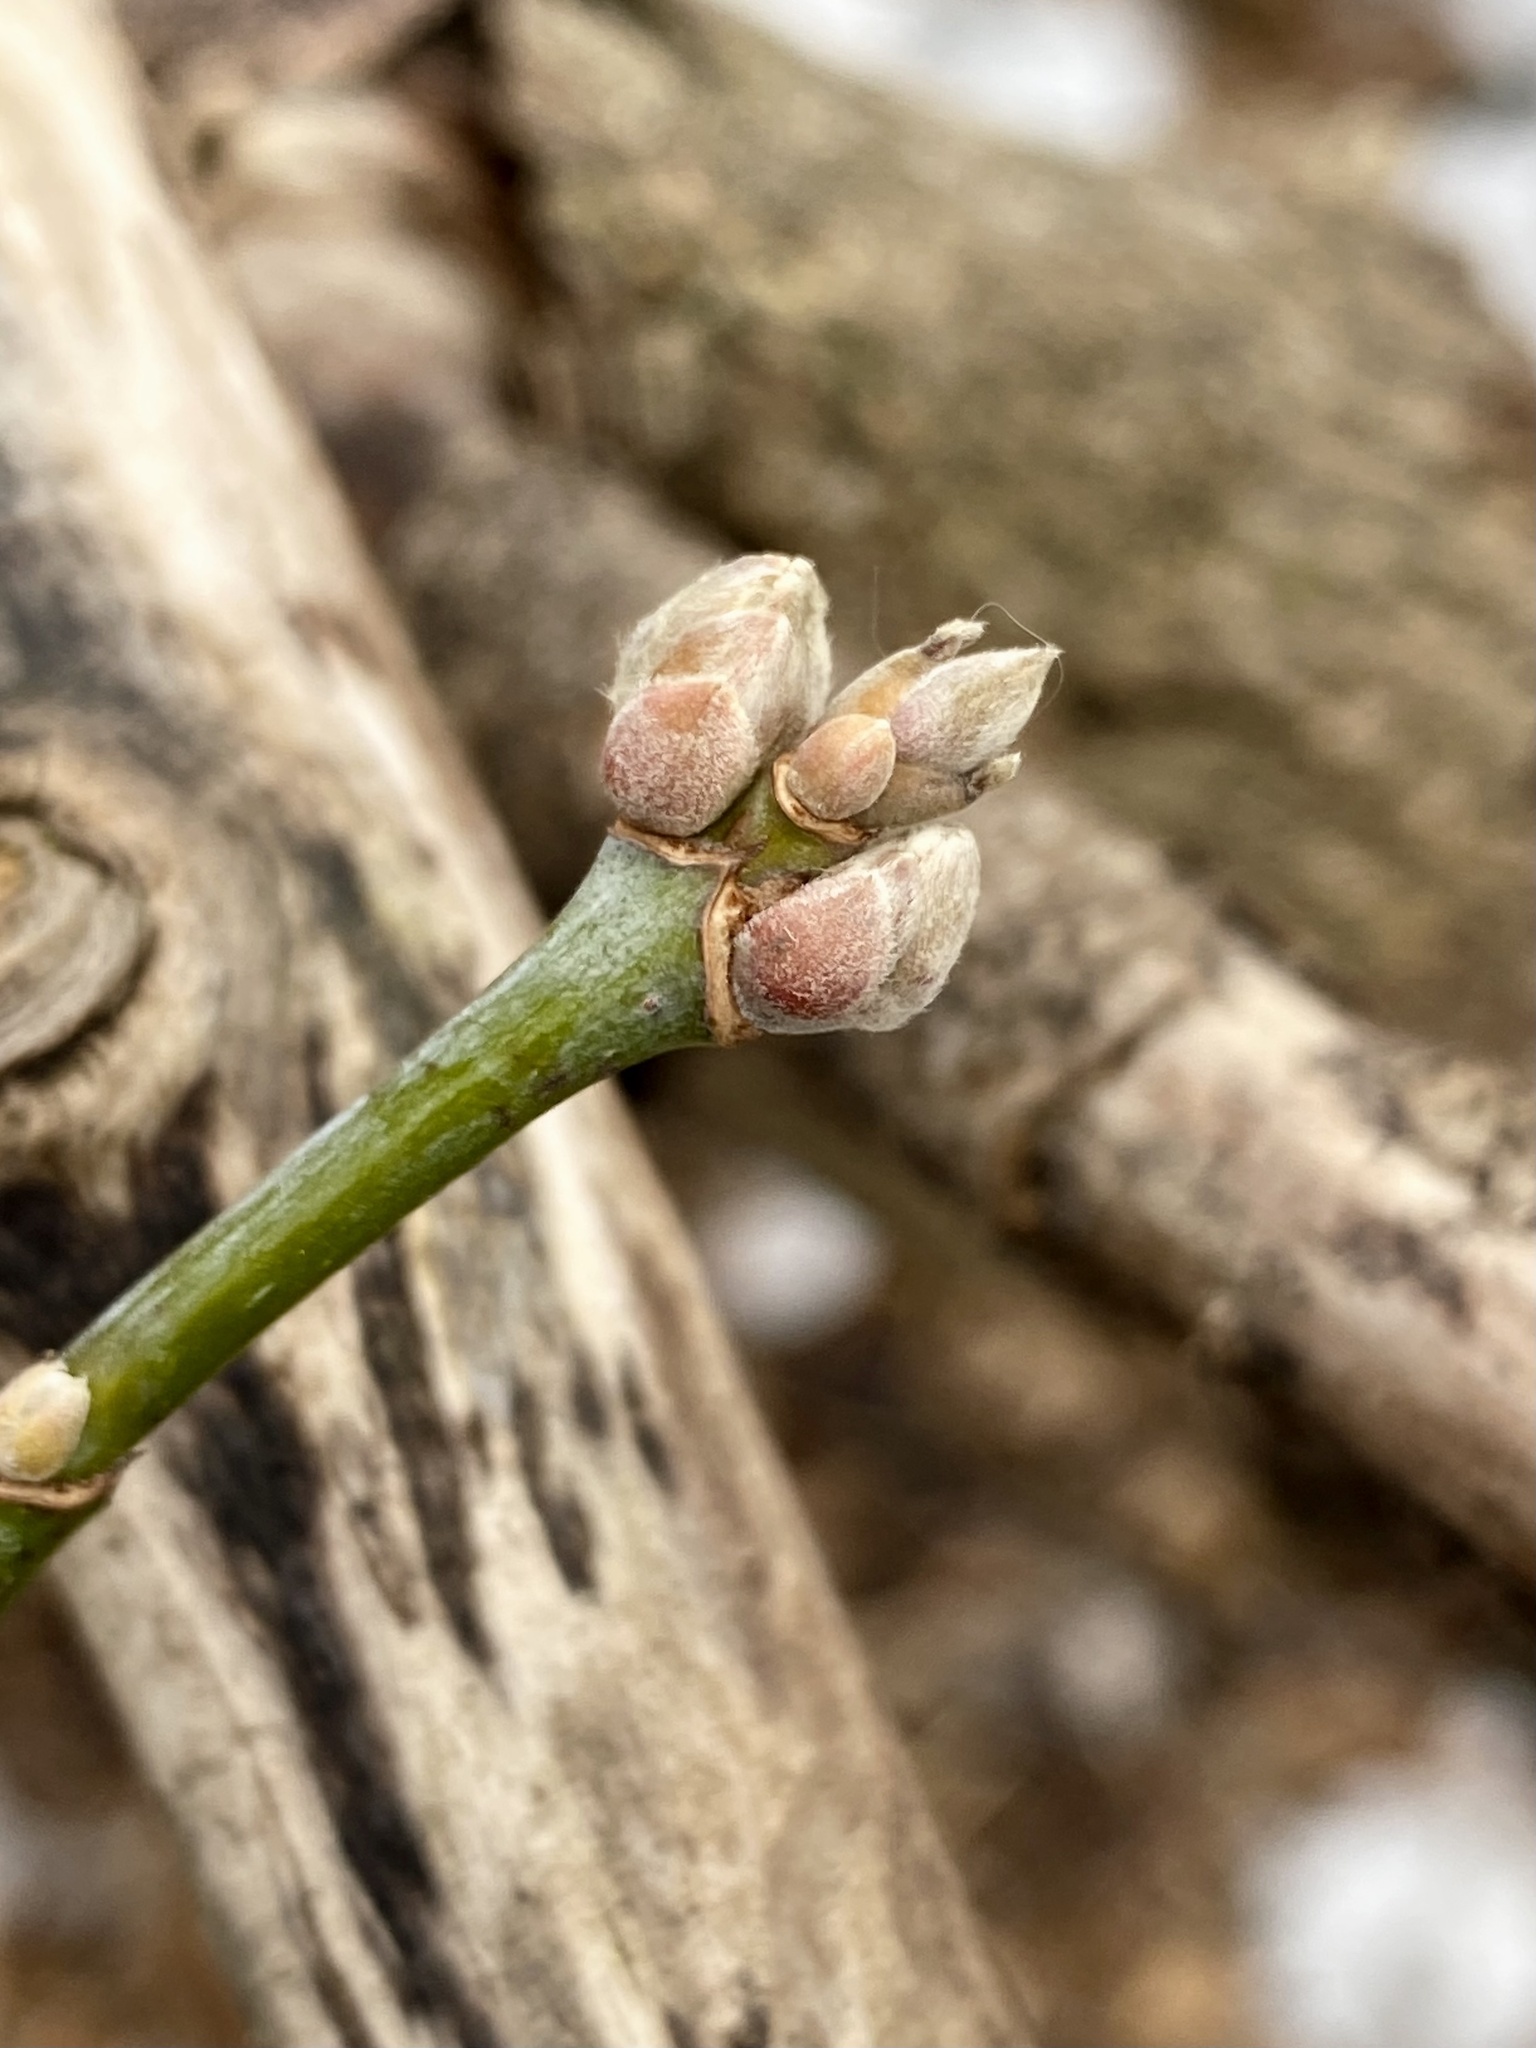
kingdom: Plantae
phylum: Tracheophyta
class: Magnoliopsida
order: Sapindales
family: Sapindaceae
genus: Acer
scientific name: Acer negundo
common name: Ashleaf maple
